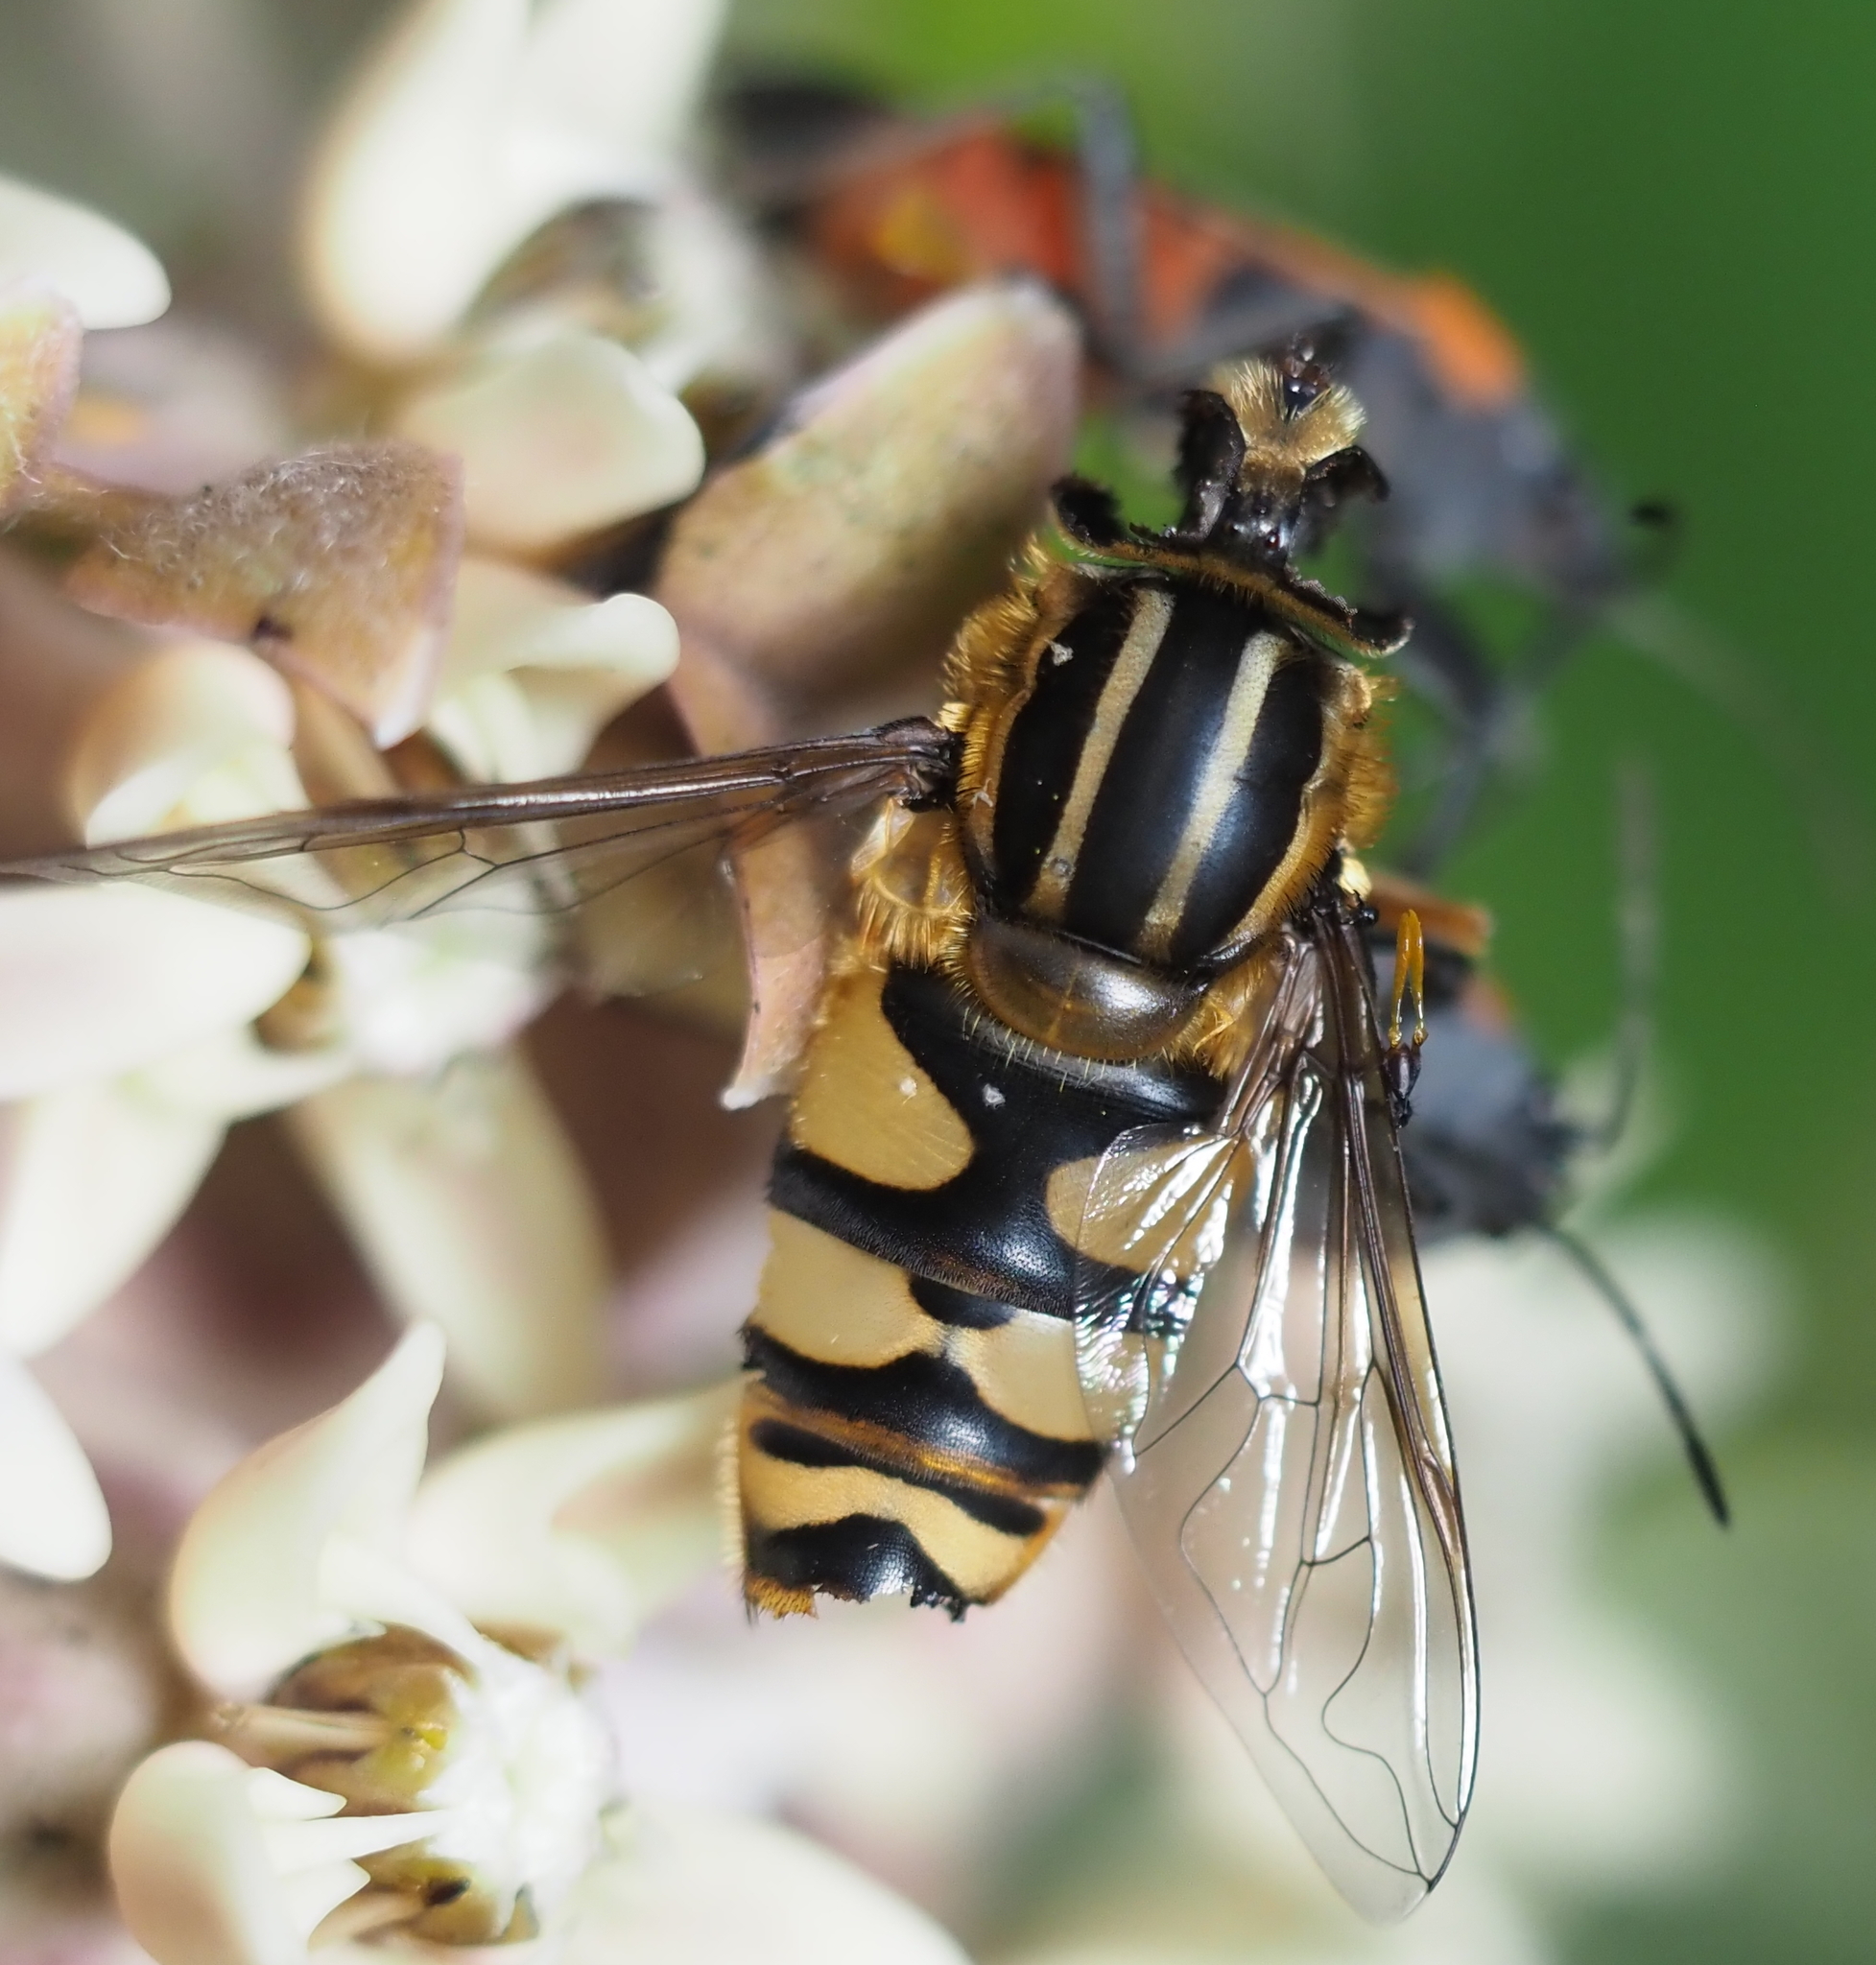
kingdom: Animalia
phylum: Arthropoda
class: Insecta
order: Hemiptera
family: Lygaeidae
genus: Lygaeus
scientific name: Lygaeus kalmii
